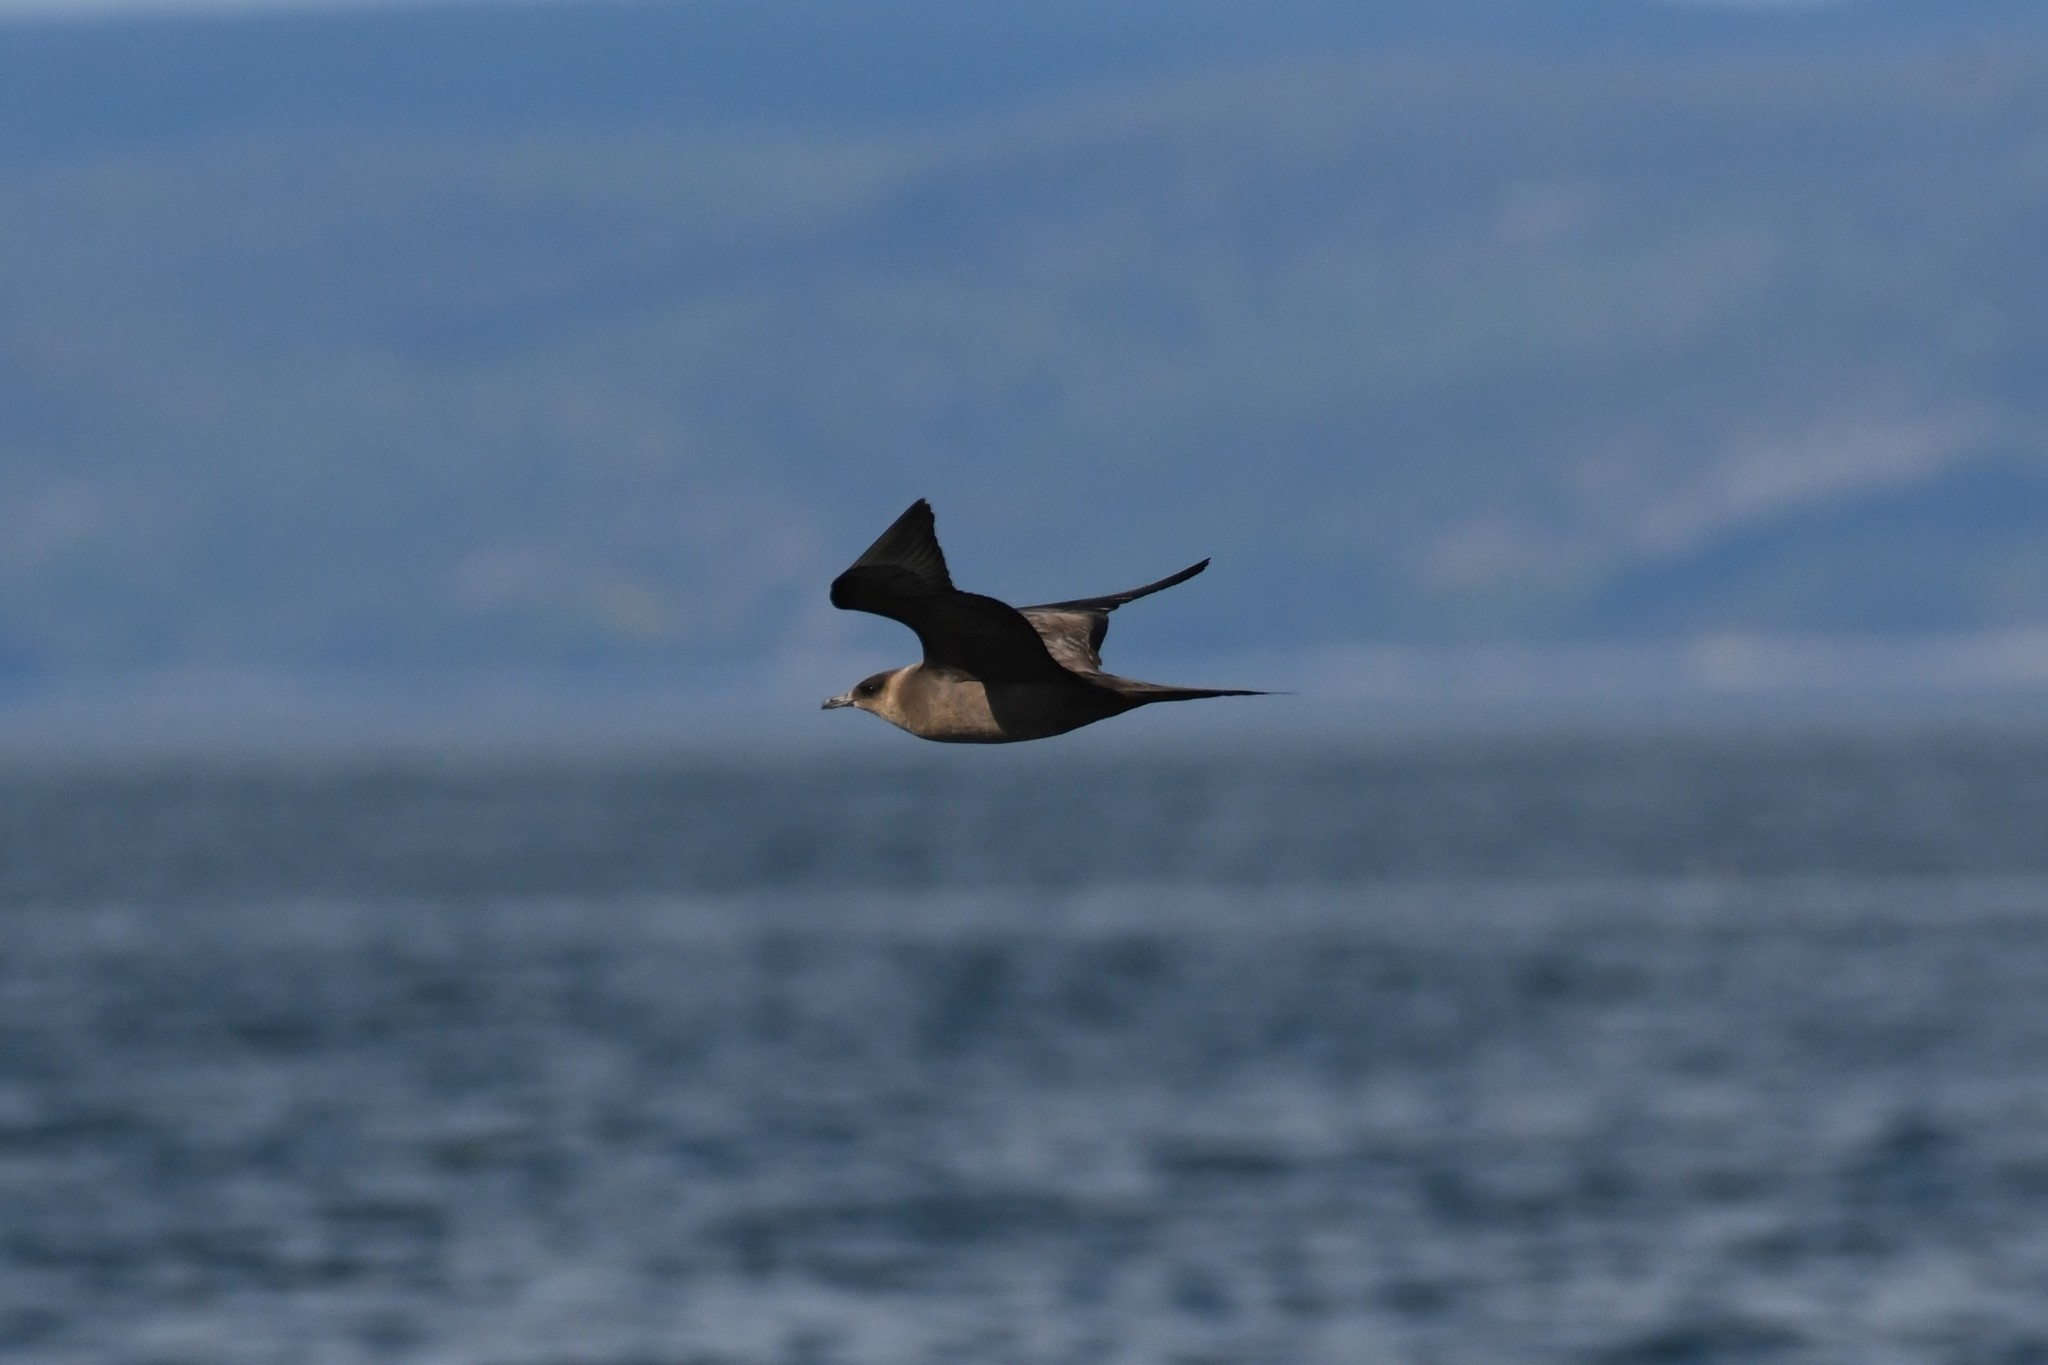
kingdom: Animalia
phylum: Chordata
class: Aves
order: Charadriiformes
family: Stercorariidae
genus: Stercorarius
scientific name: Stercorarius parasiticus
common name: Parasitic jaeger
